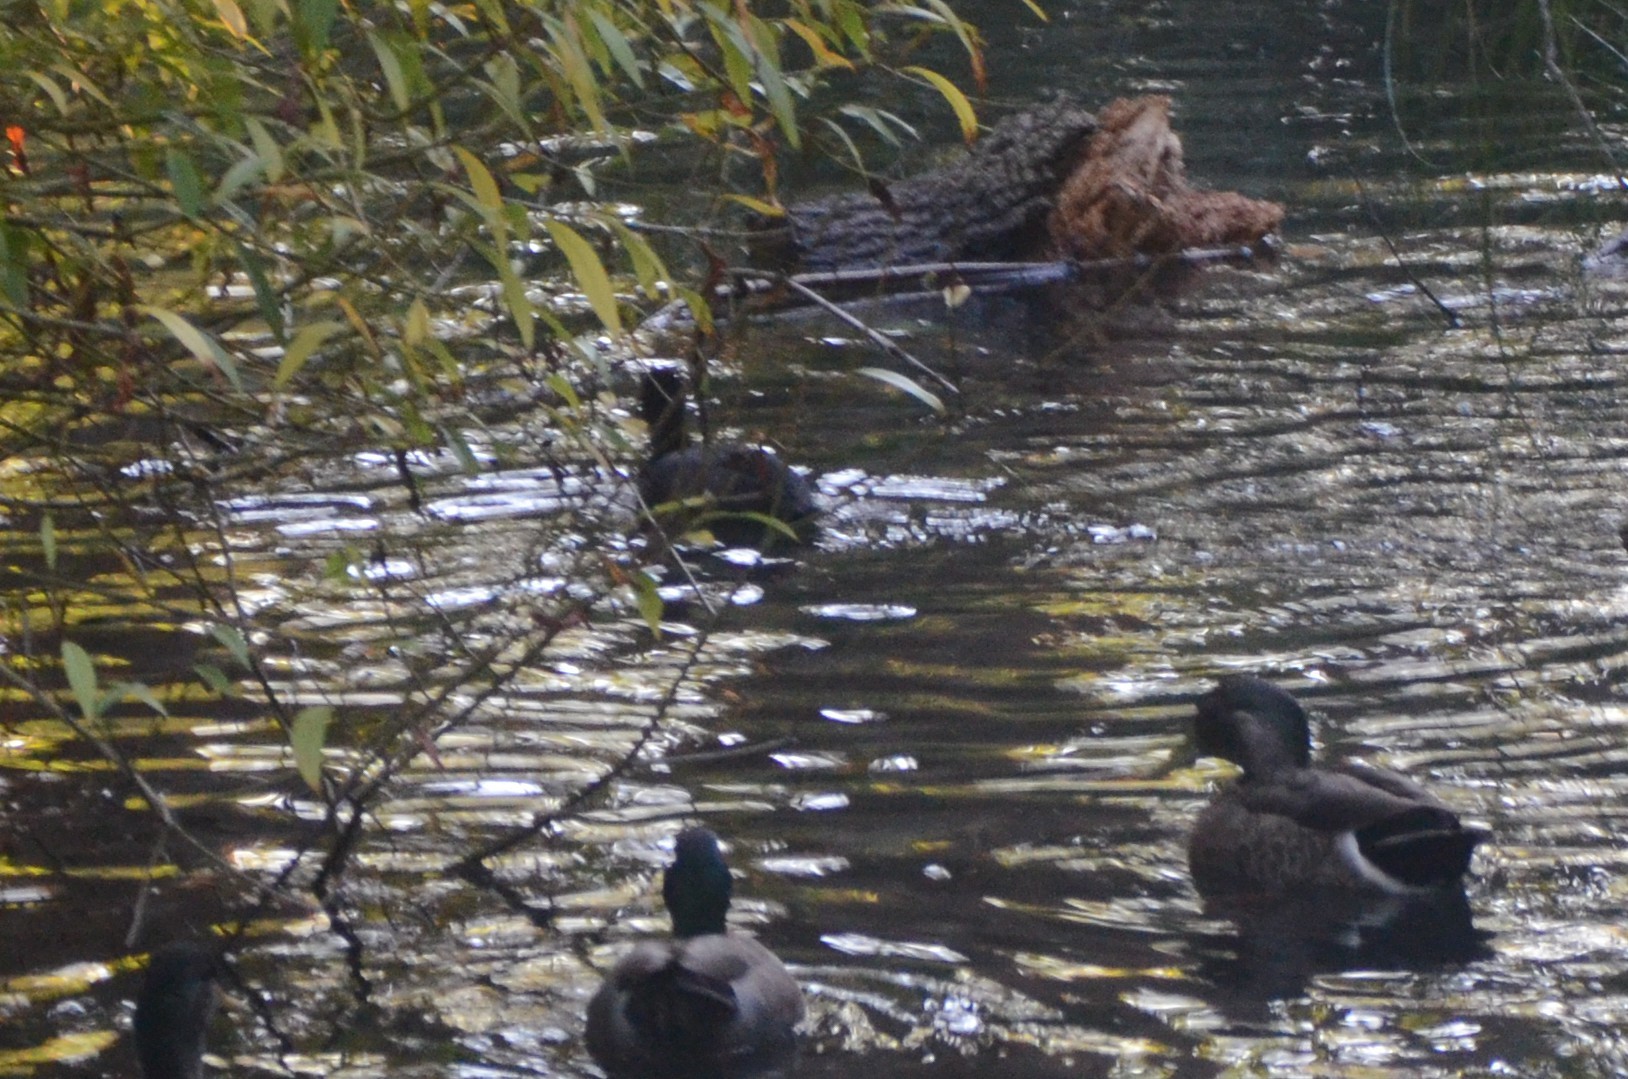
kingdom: Animalia
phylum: Chordata
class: Aves
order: Gruiformes
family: Rallidae
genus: Fulica
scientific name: Fulica atra
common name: Eurasian coot
